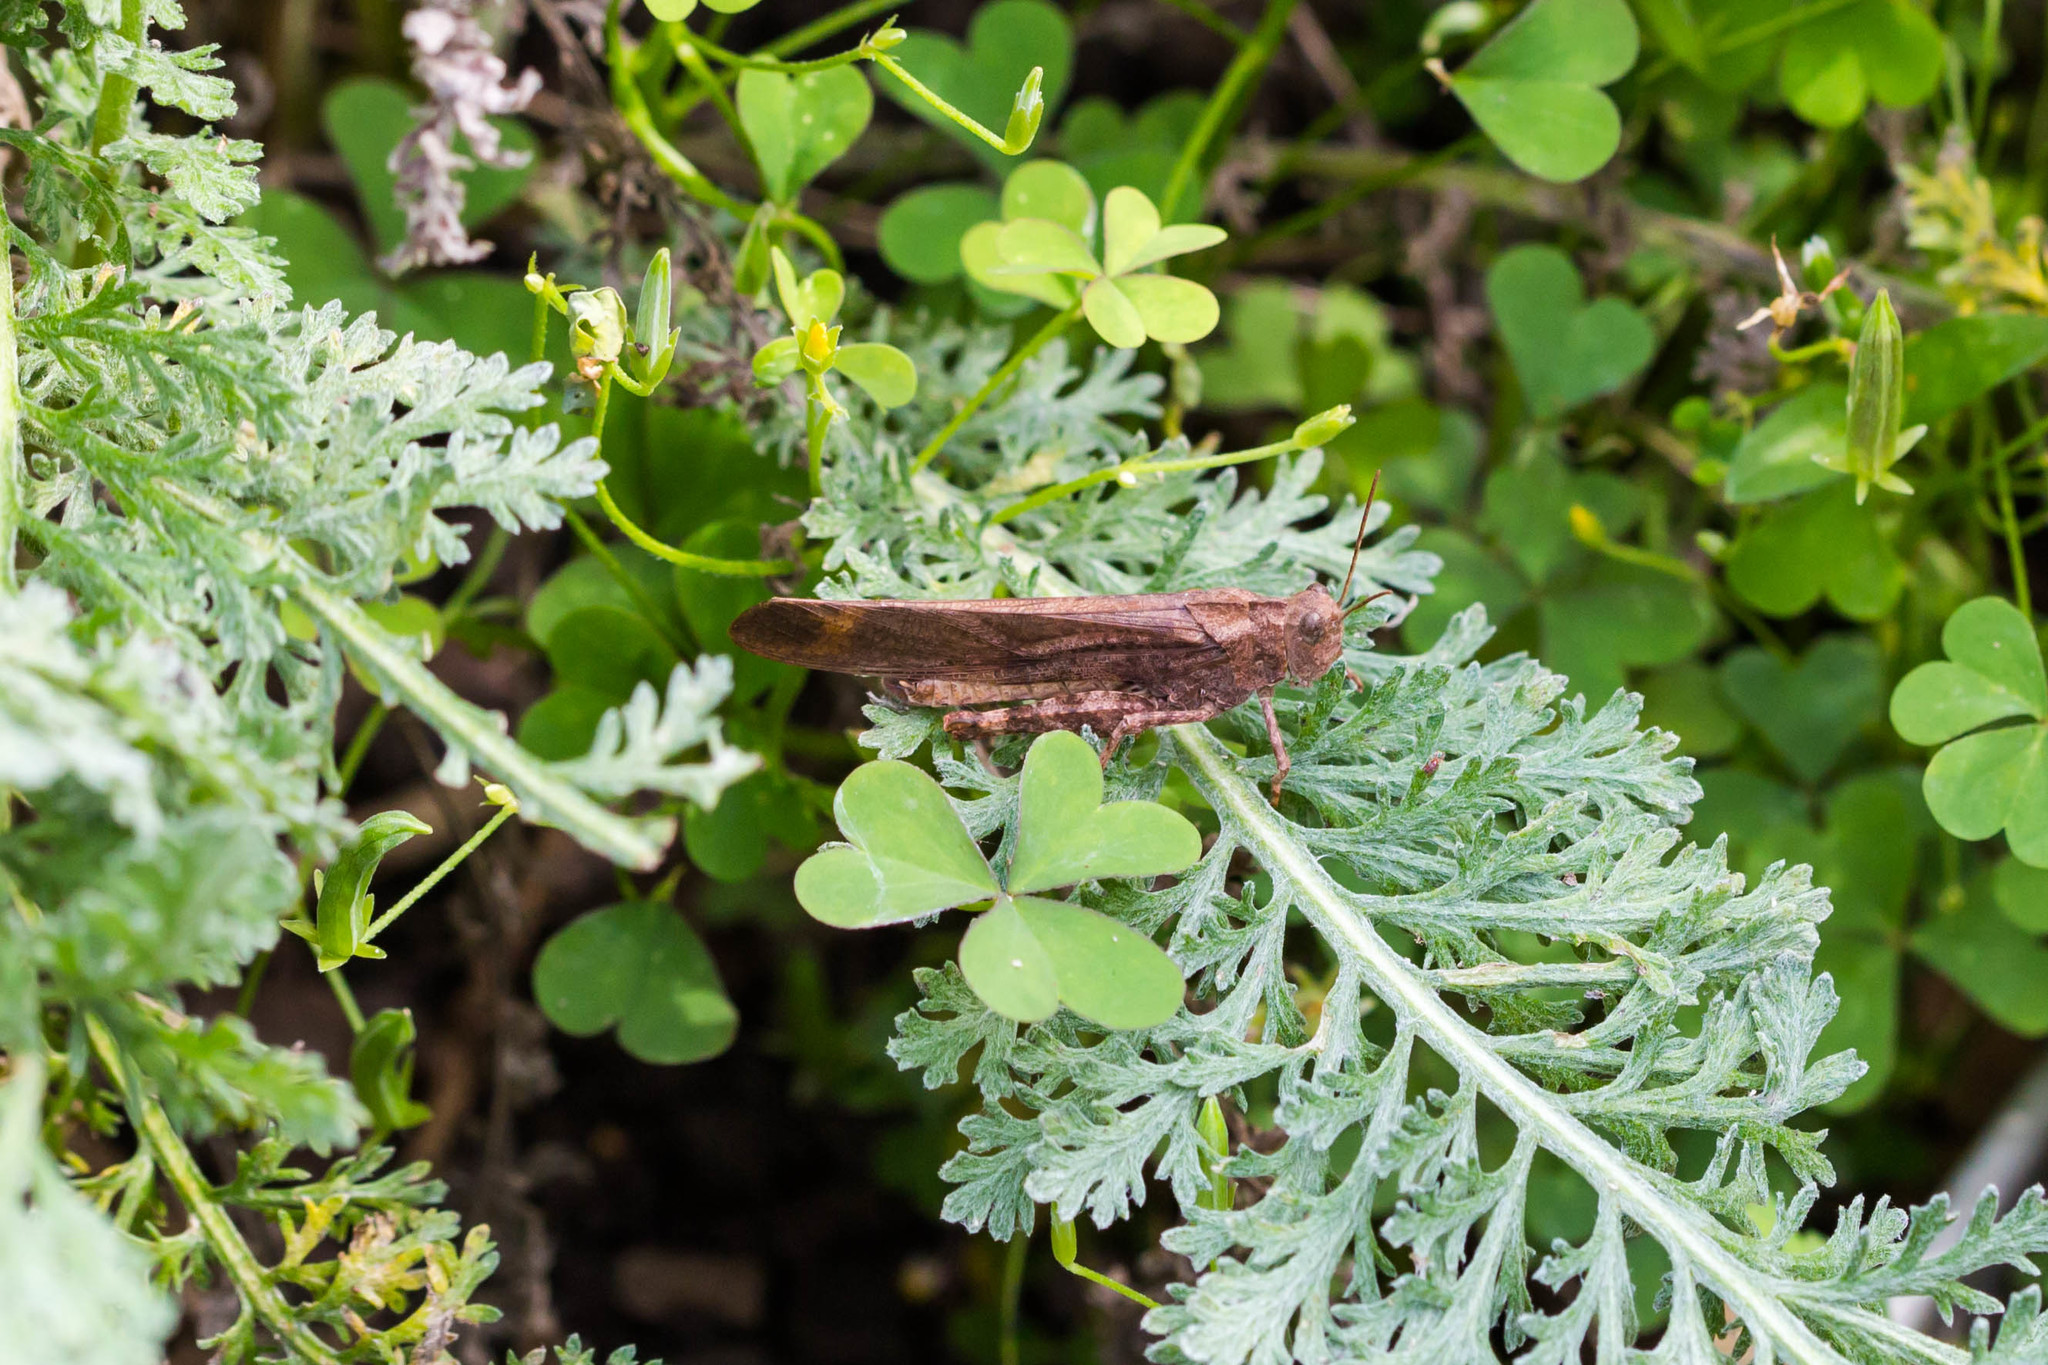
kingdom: Animalia
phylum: Arthropoda
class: Insecta
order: Orthoptera
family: Acrididae
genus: Dissosteira
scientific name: Dissosteira carolina
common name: Carolina grasshopper
